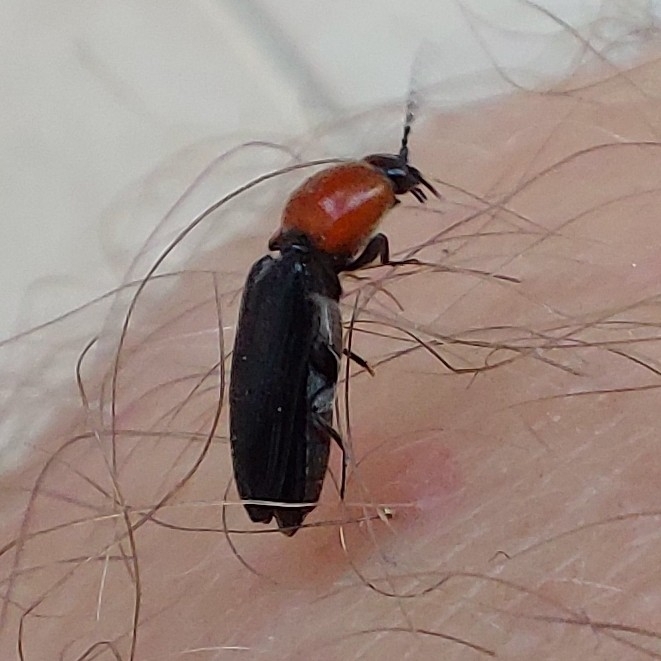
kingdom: Animalia
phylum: Arthropoda
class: Insecta
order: Coleoptera
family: Elateridae
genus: Cardiophorus
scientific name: Cardiophorus gramineus
